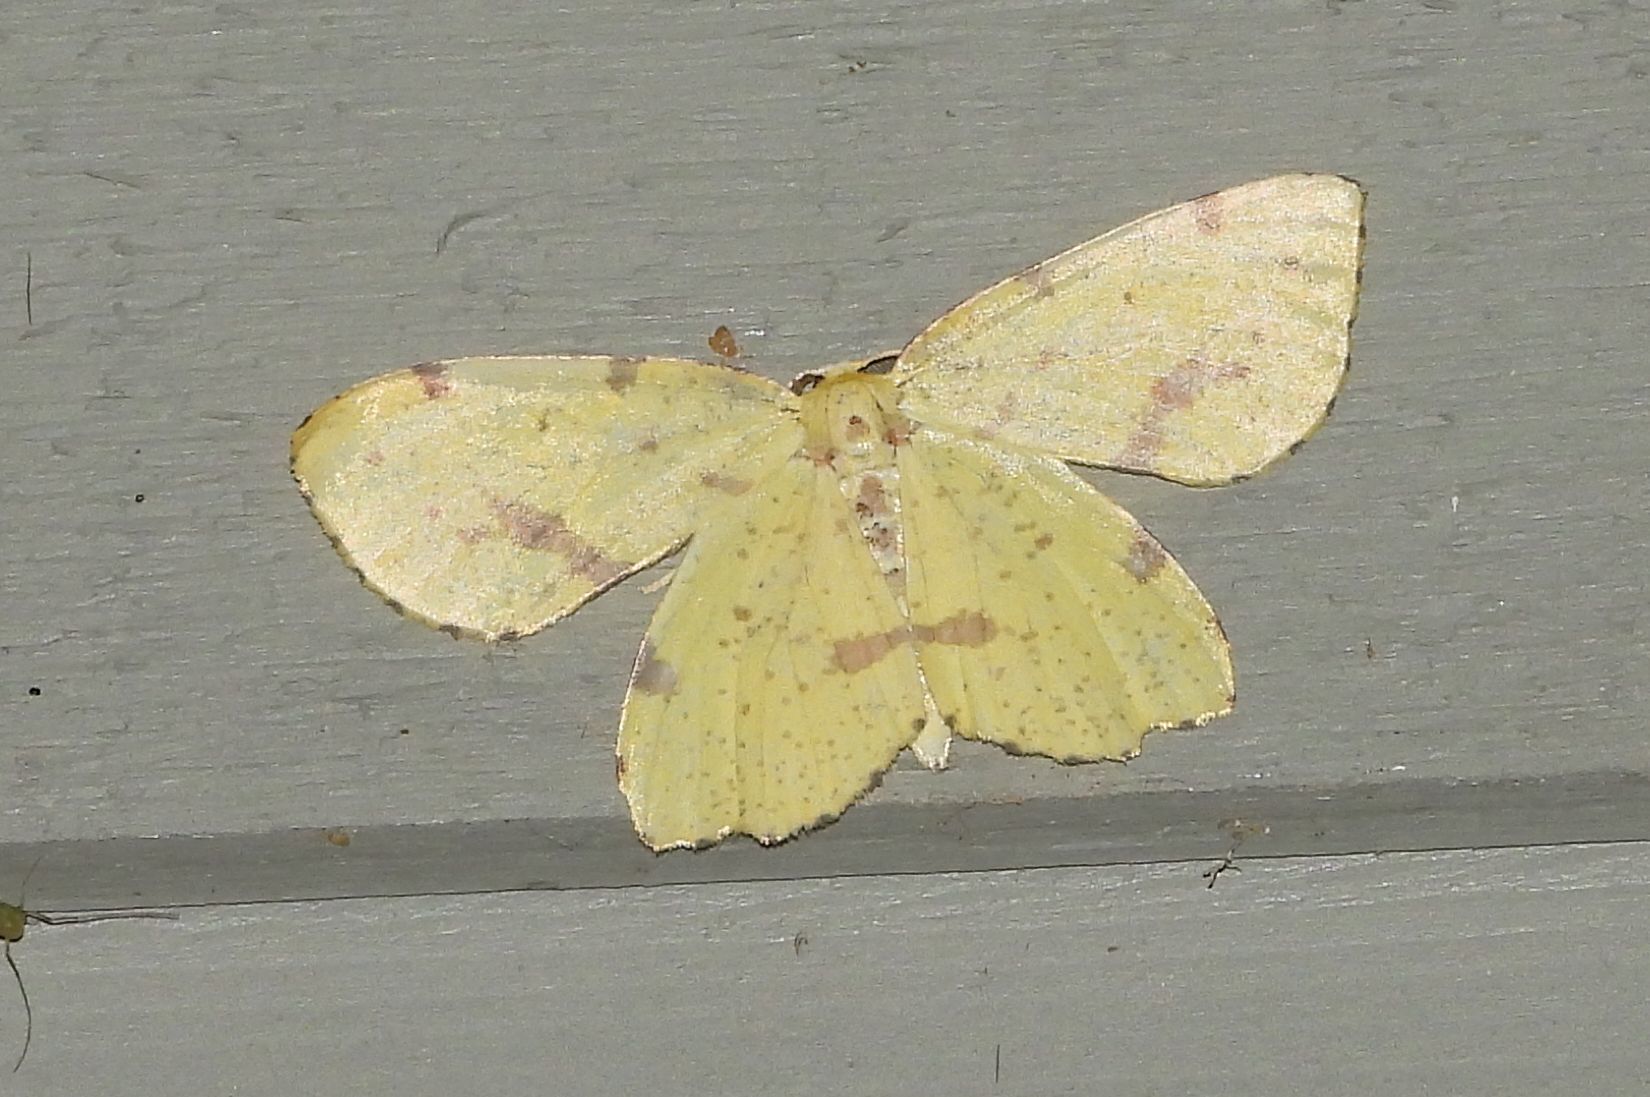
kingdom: Animalia
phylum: Arthropoda
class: Insecta
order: Lepidoptera
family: Geometridae
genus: Xanthotype
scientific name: Xanthotype
